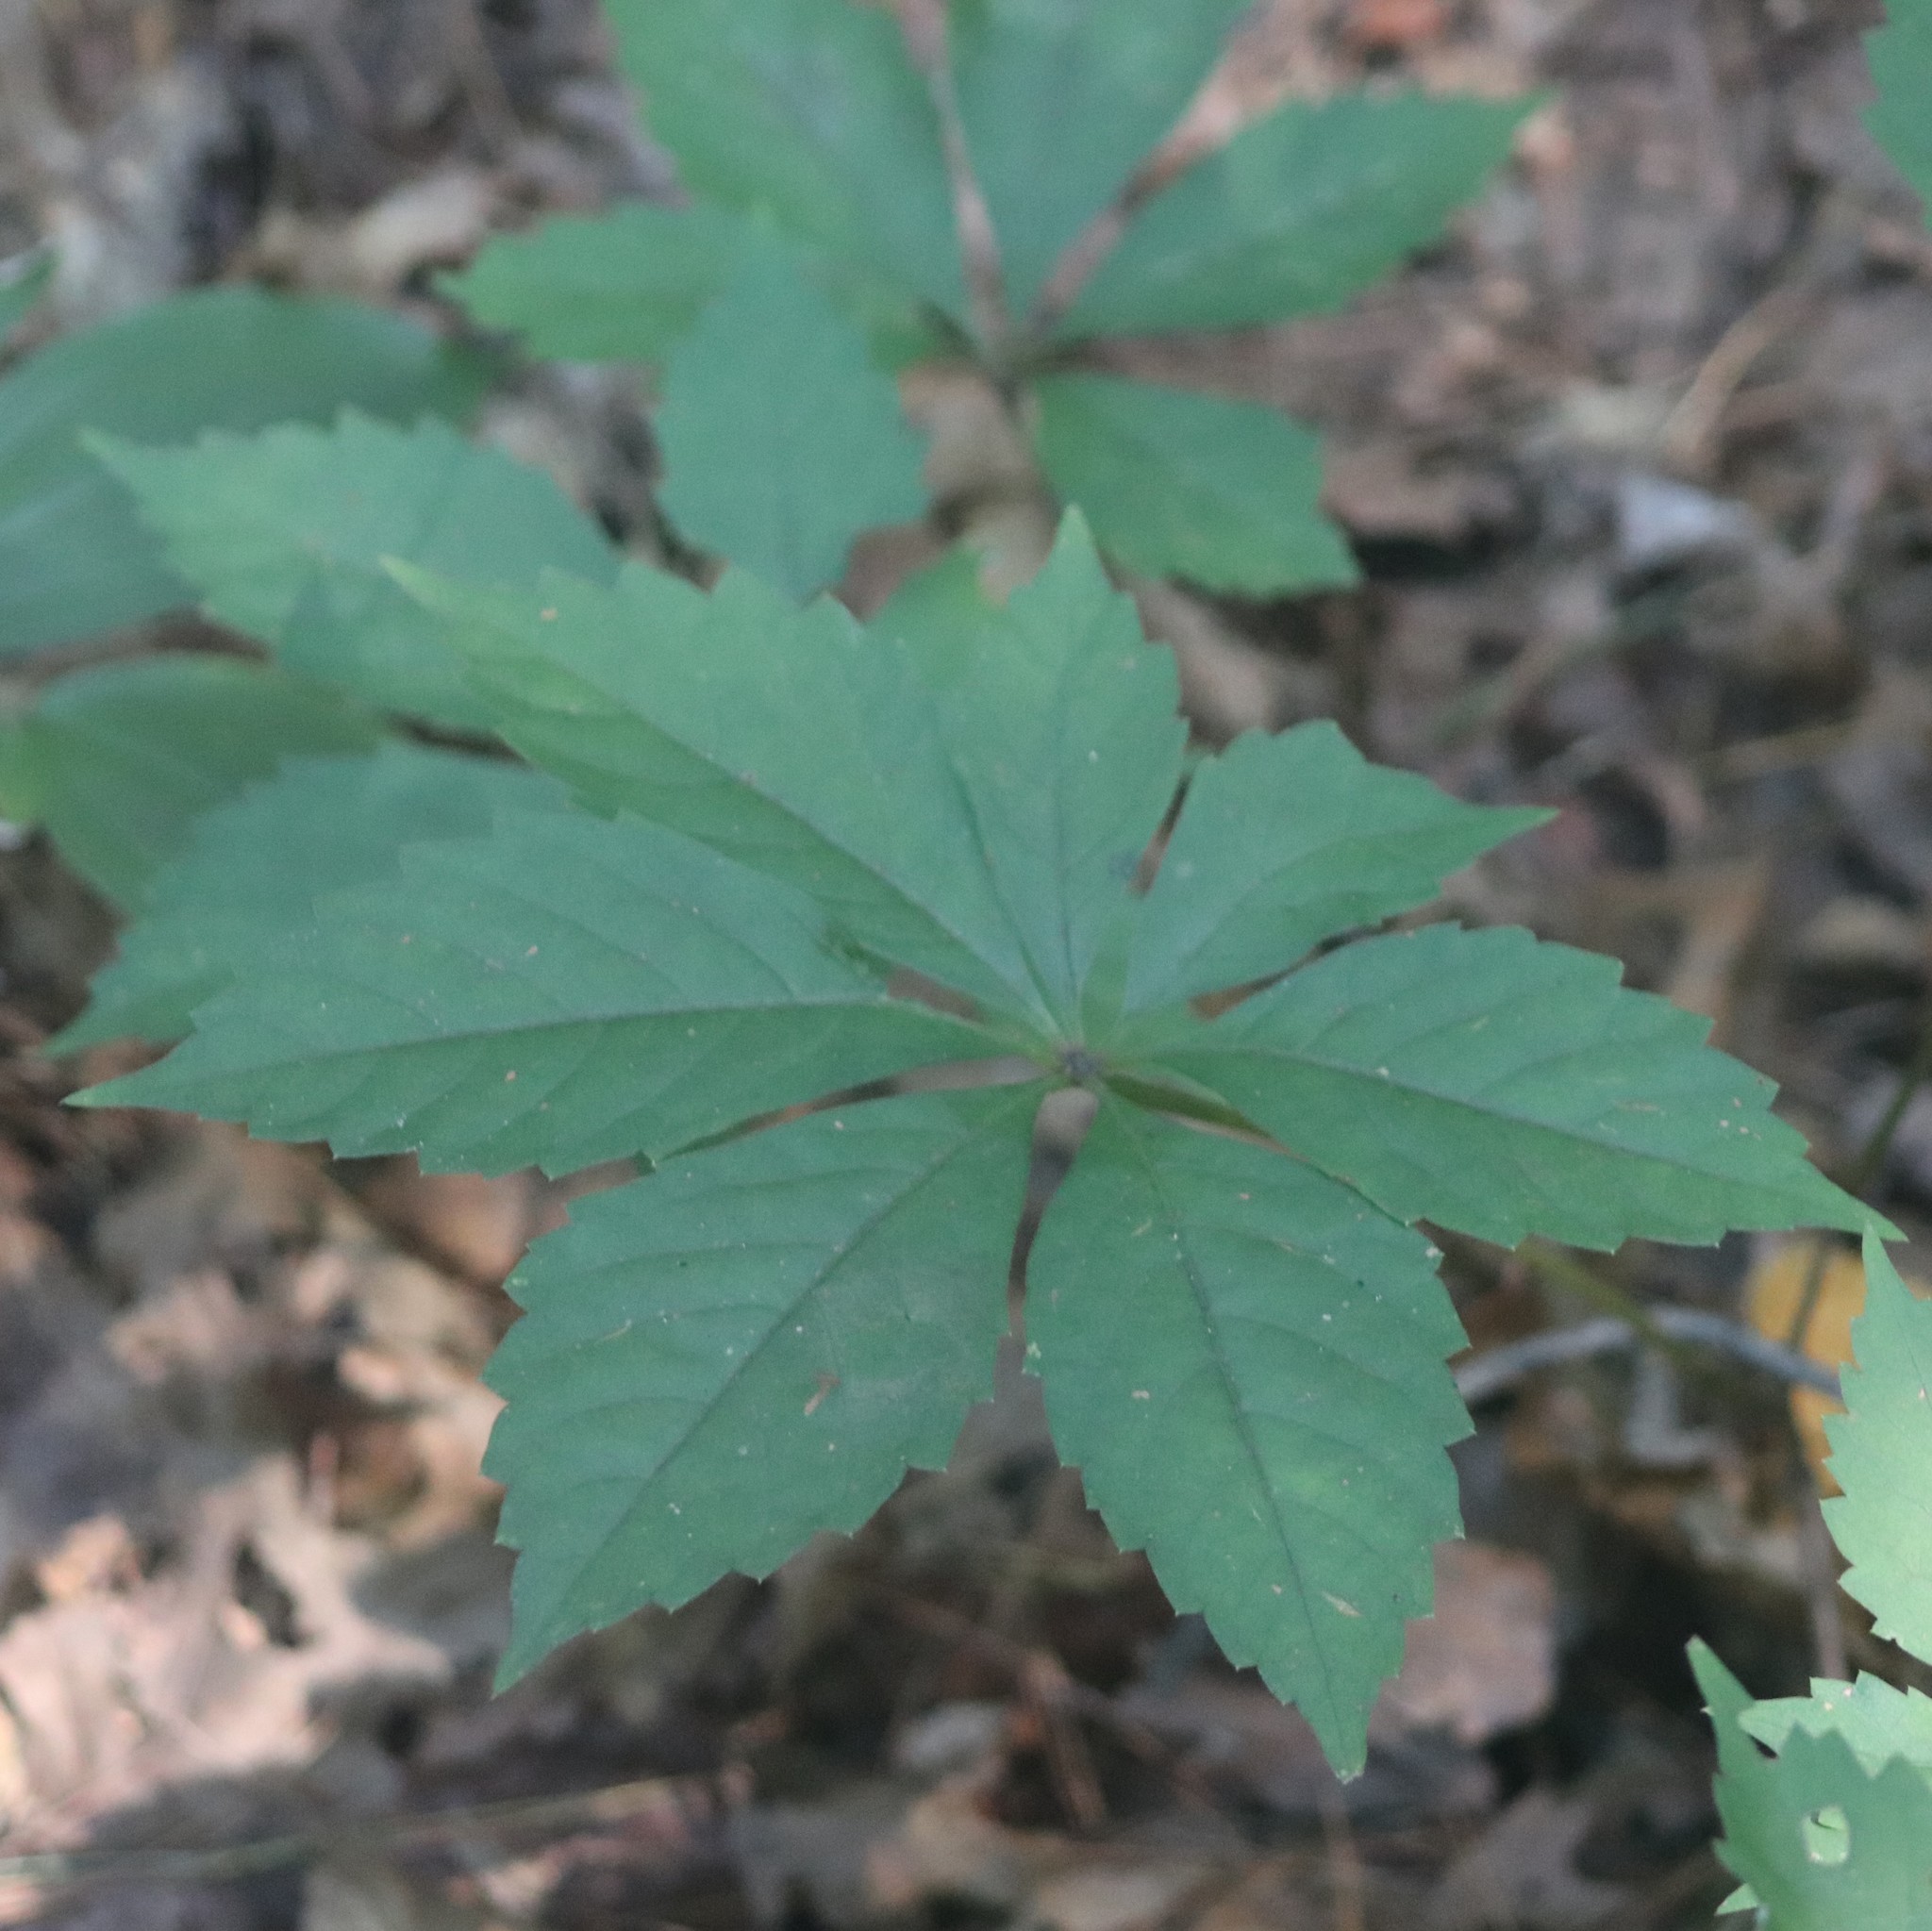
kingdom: Plantae
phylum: Tracheophyta
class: Magnoliopsida
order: Vitales
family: Vitaceae
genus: Parthenocissus
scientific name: Parthenocissus quinquefolia
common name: Virginia-creeper
